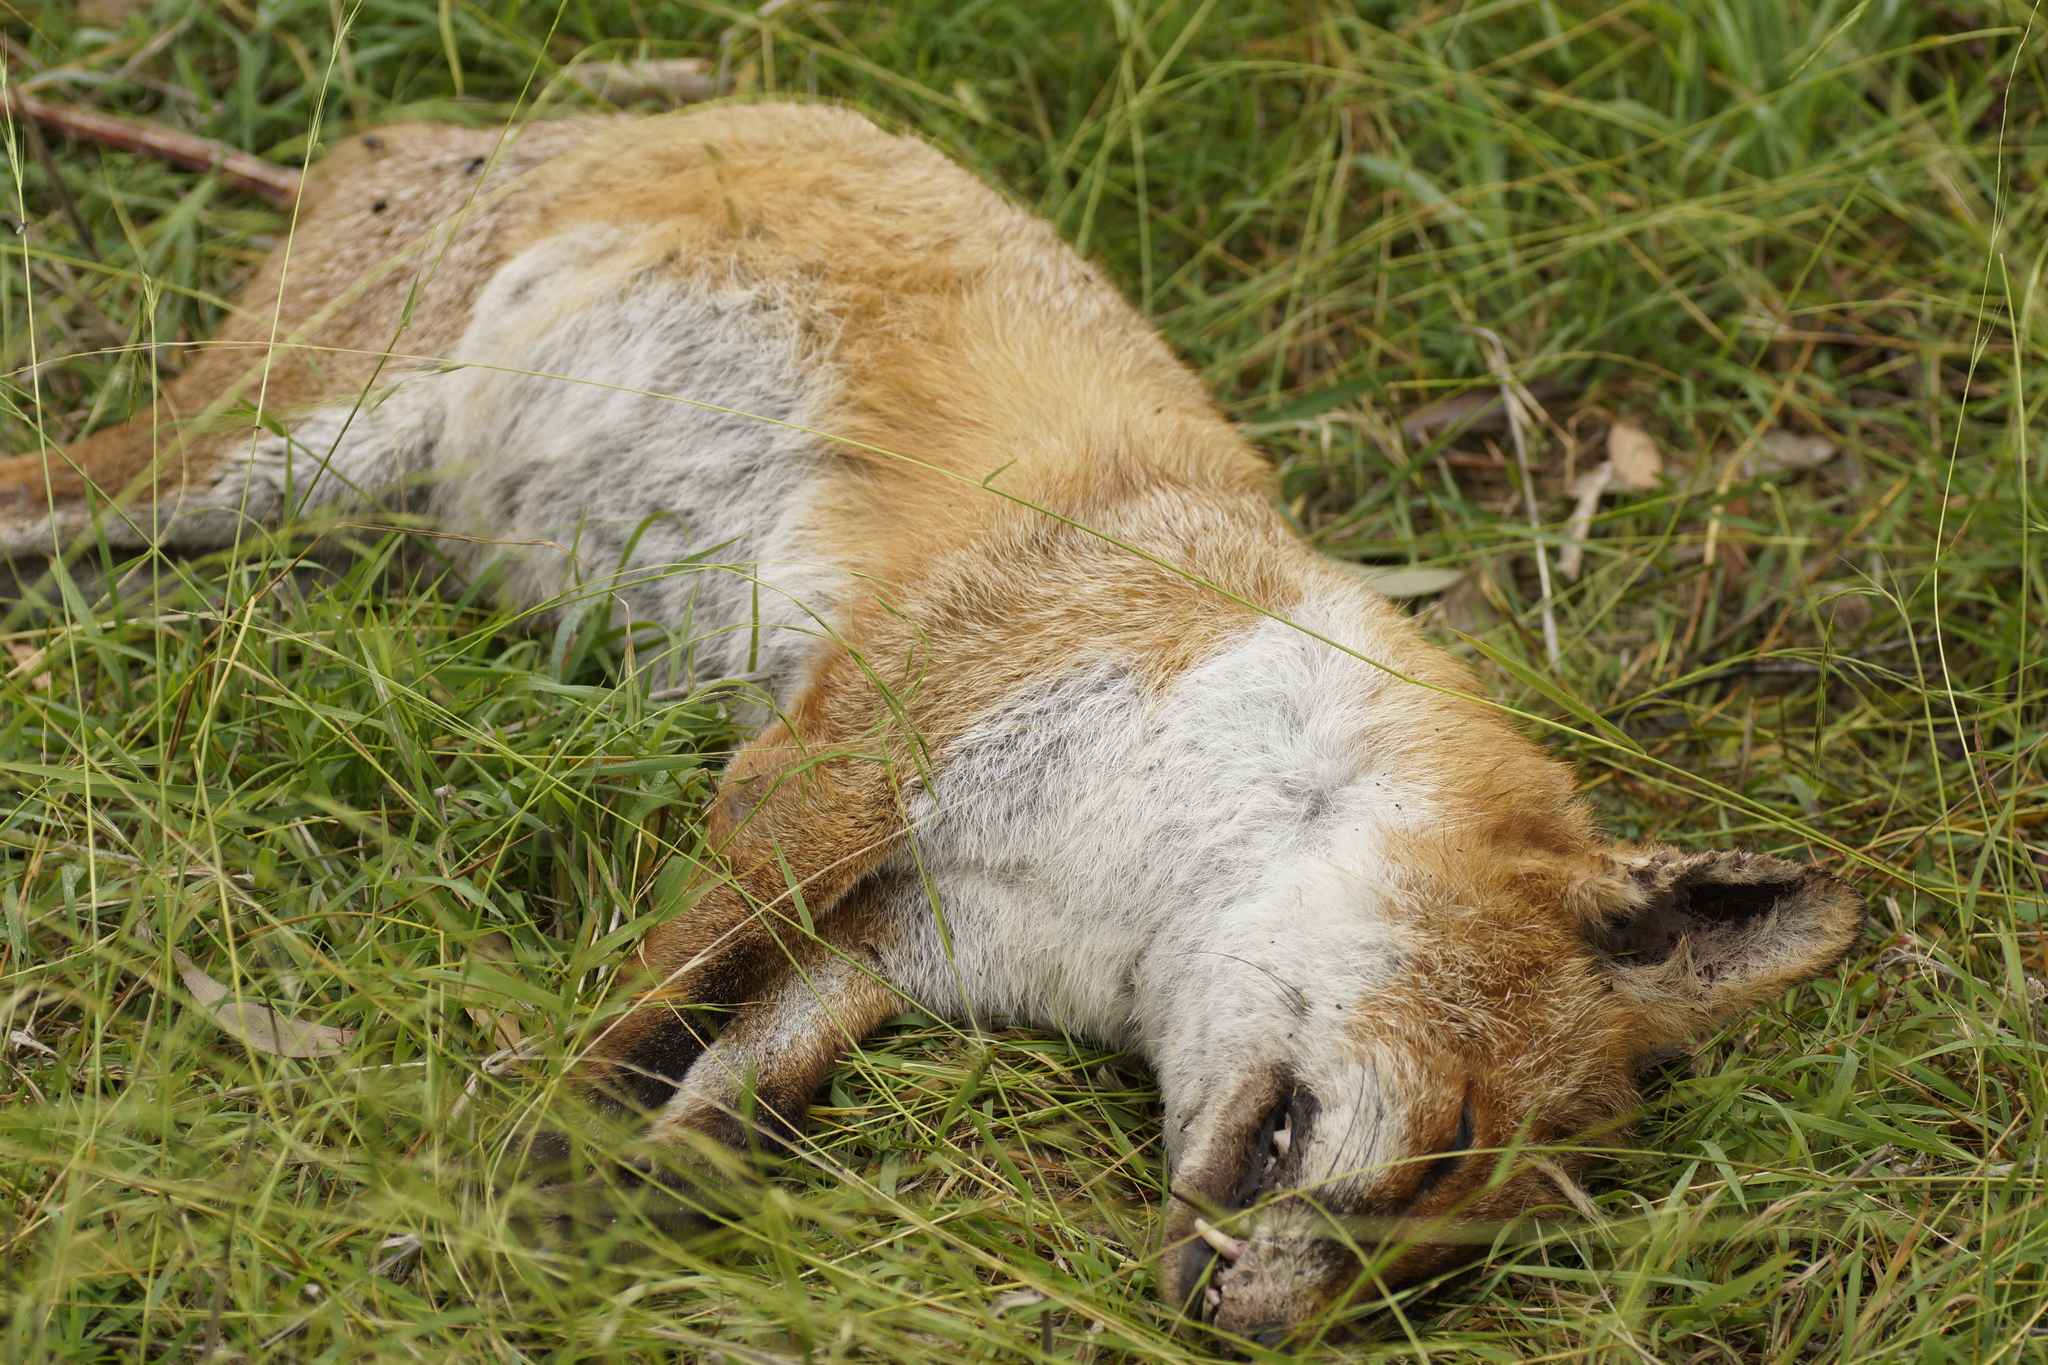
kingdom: Animalia
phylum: Chordata
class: Mammalia
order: Carnivora
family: Canidae
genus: Vulpes
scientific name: Vulpes vulpes
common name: Red fox
